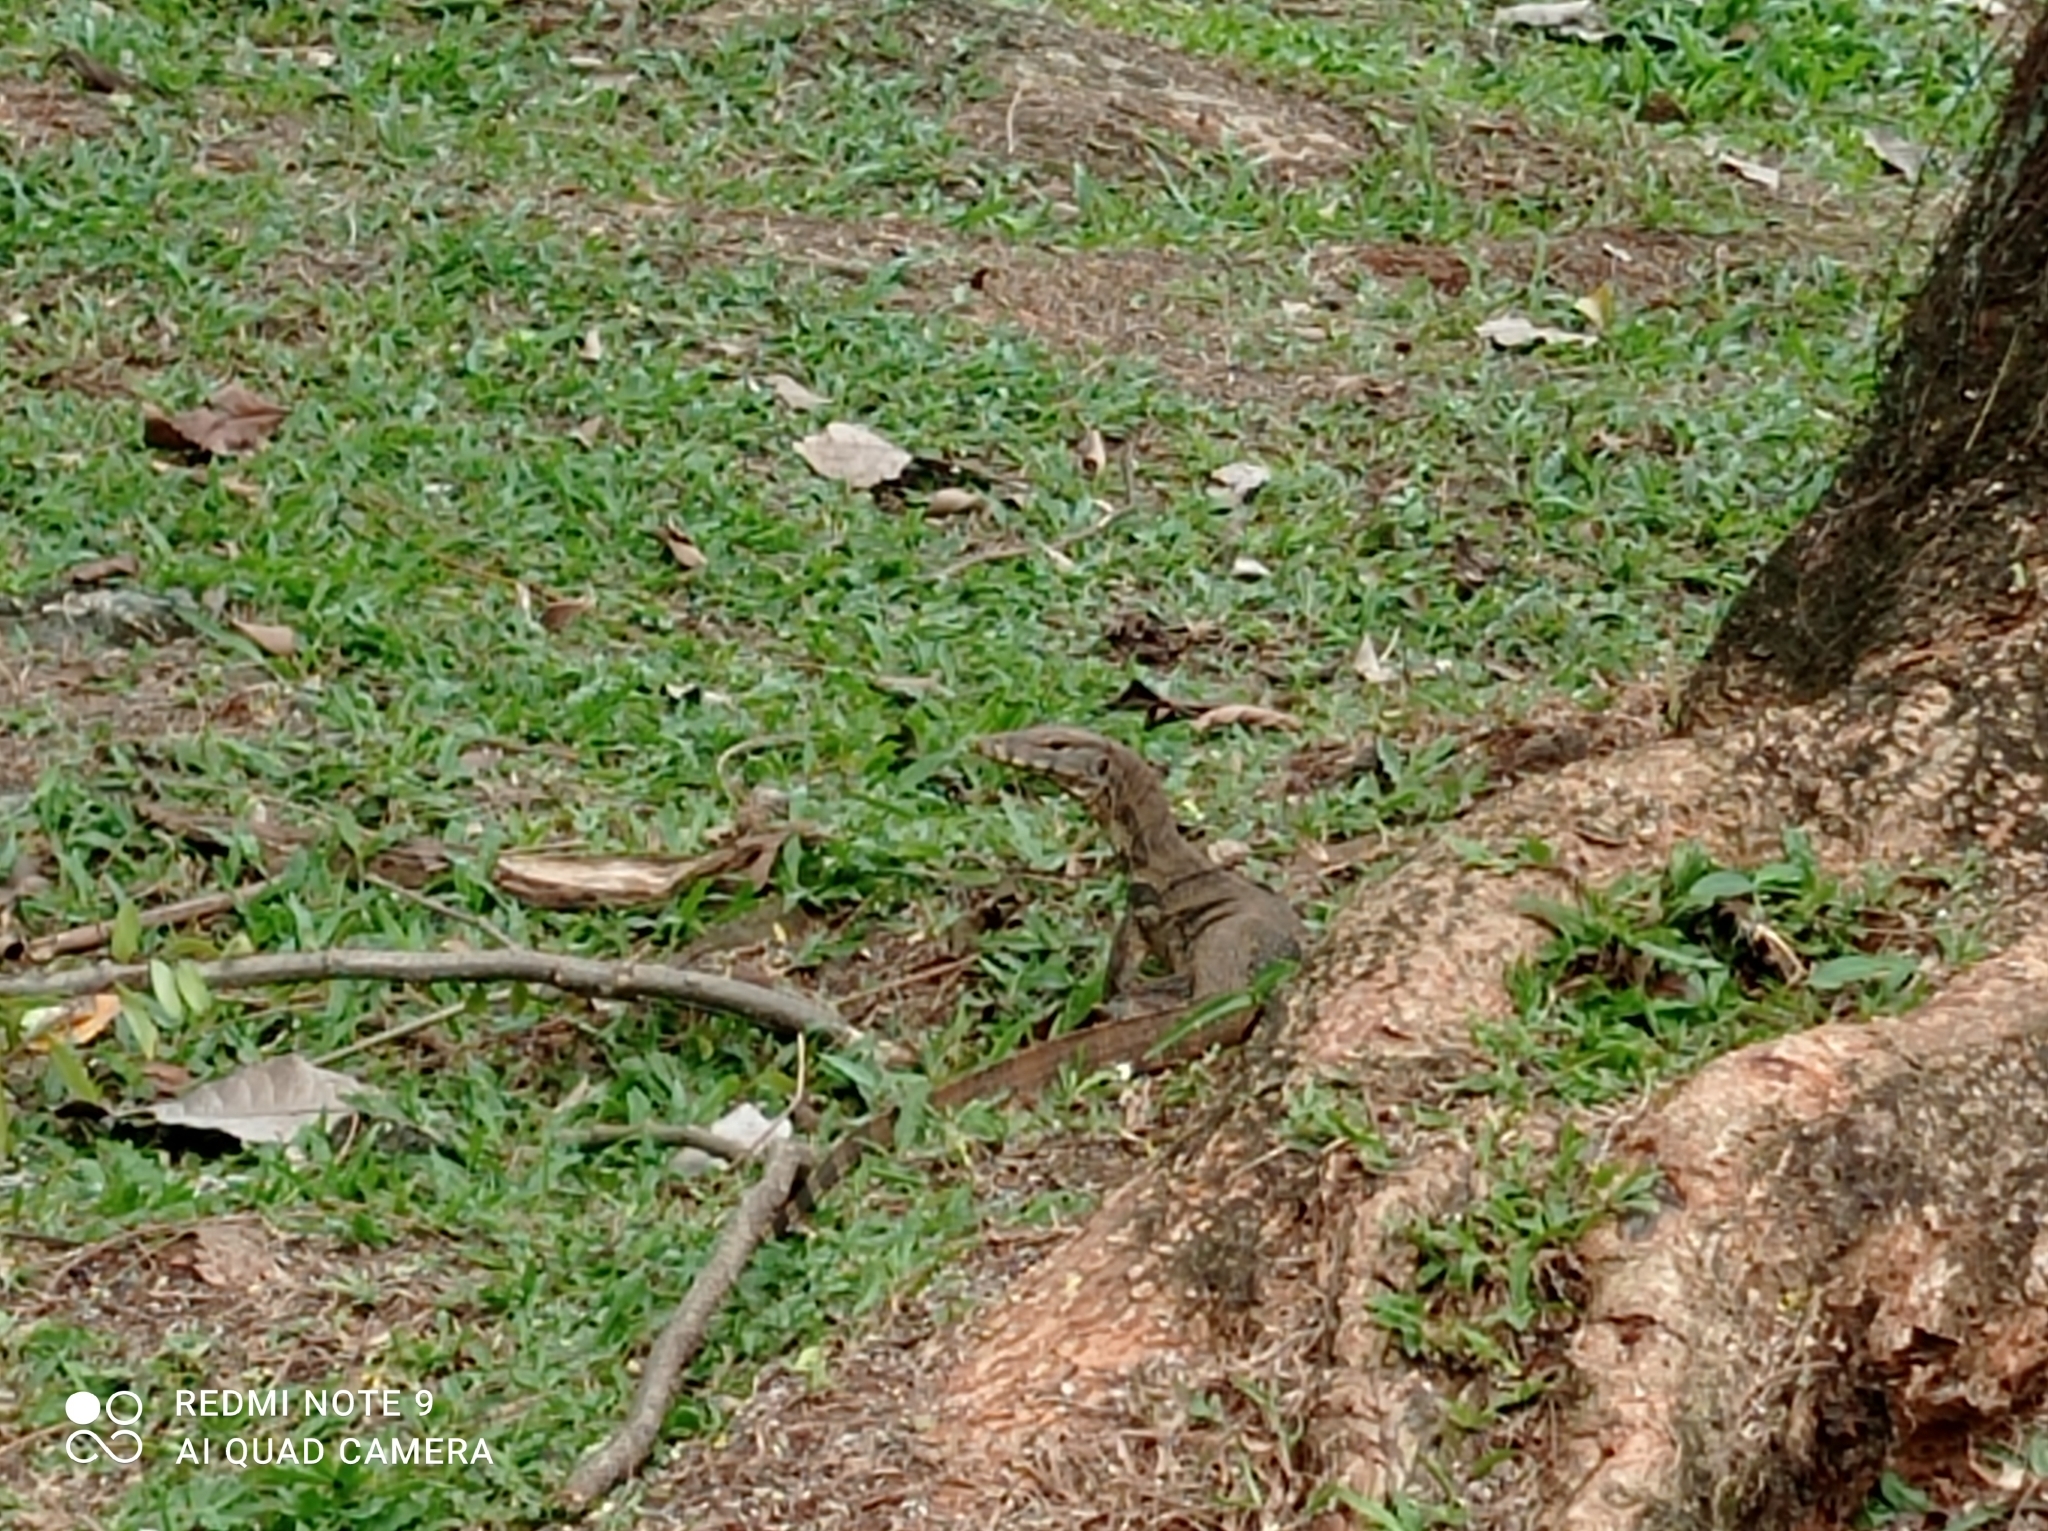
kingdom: Animalia
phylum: Chordata
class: Squamata
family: Varanidae
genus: Varanus
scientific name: Varanus salvator
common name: Common water monitor
